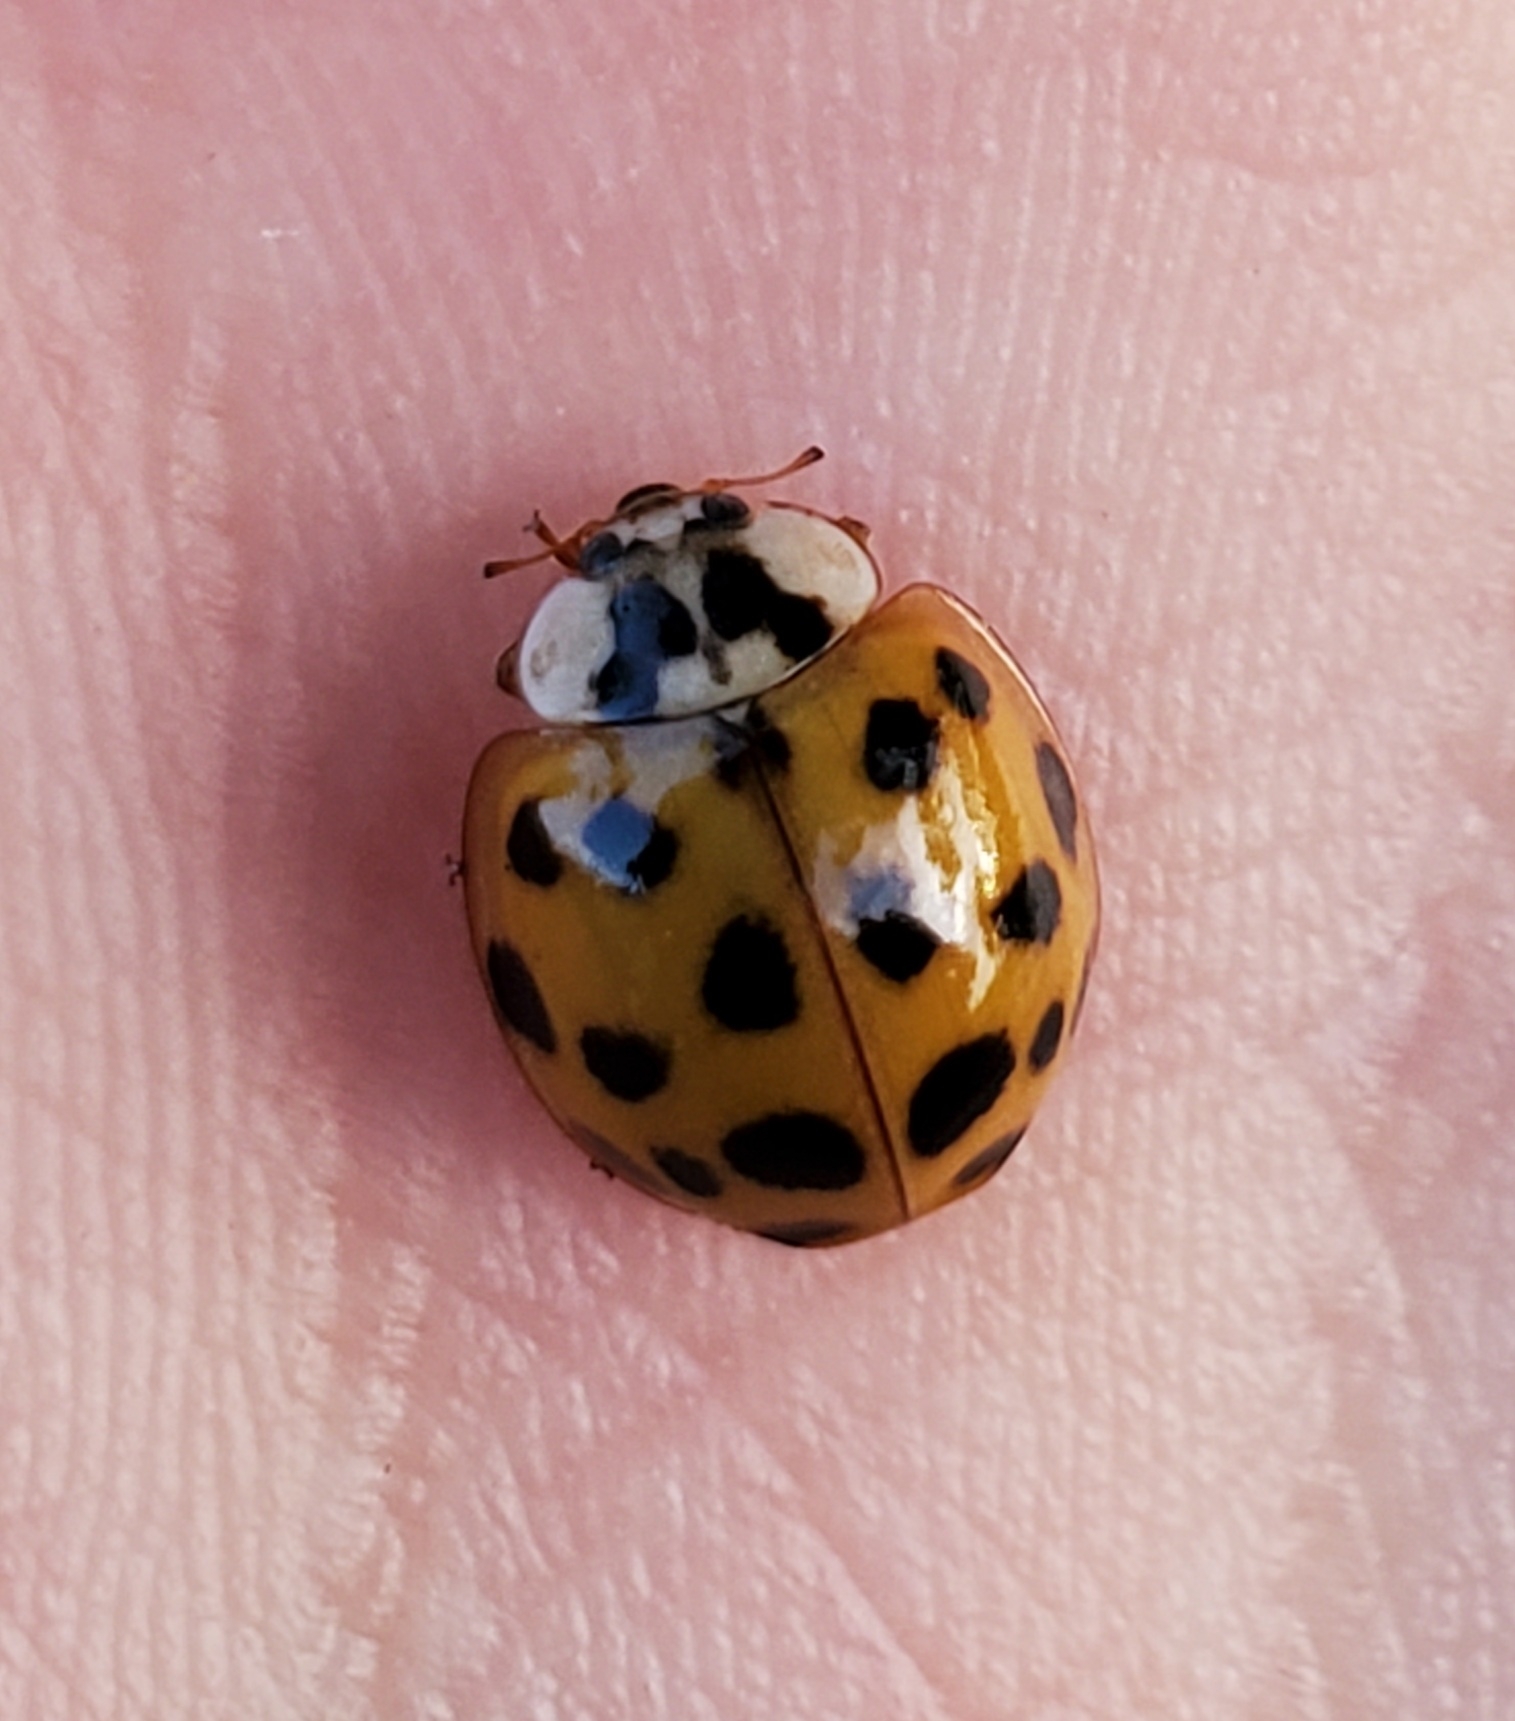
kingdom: Animalia
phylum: Arthropoda
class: Insecta
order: Coleoptera
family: Coccinellidae
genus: Harmonia
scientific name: Harmonia axyridis
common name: Harlequin ladybird
